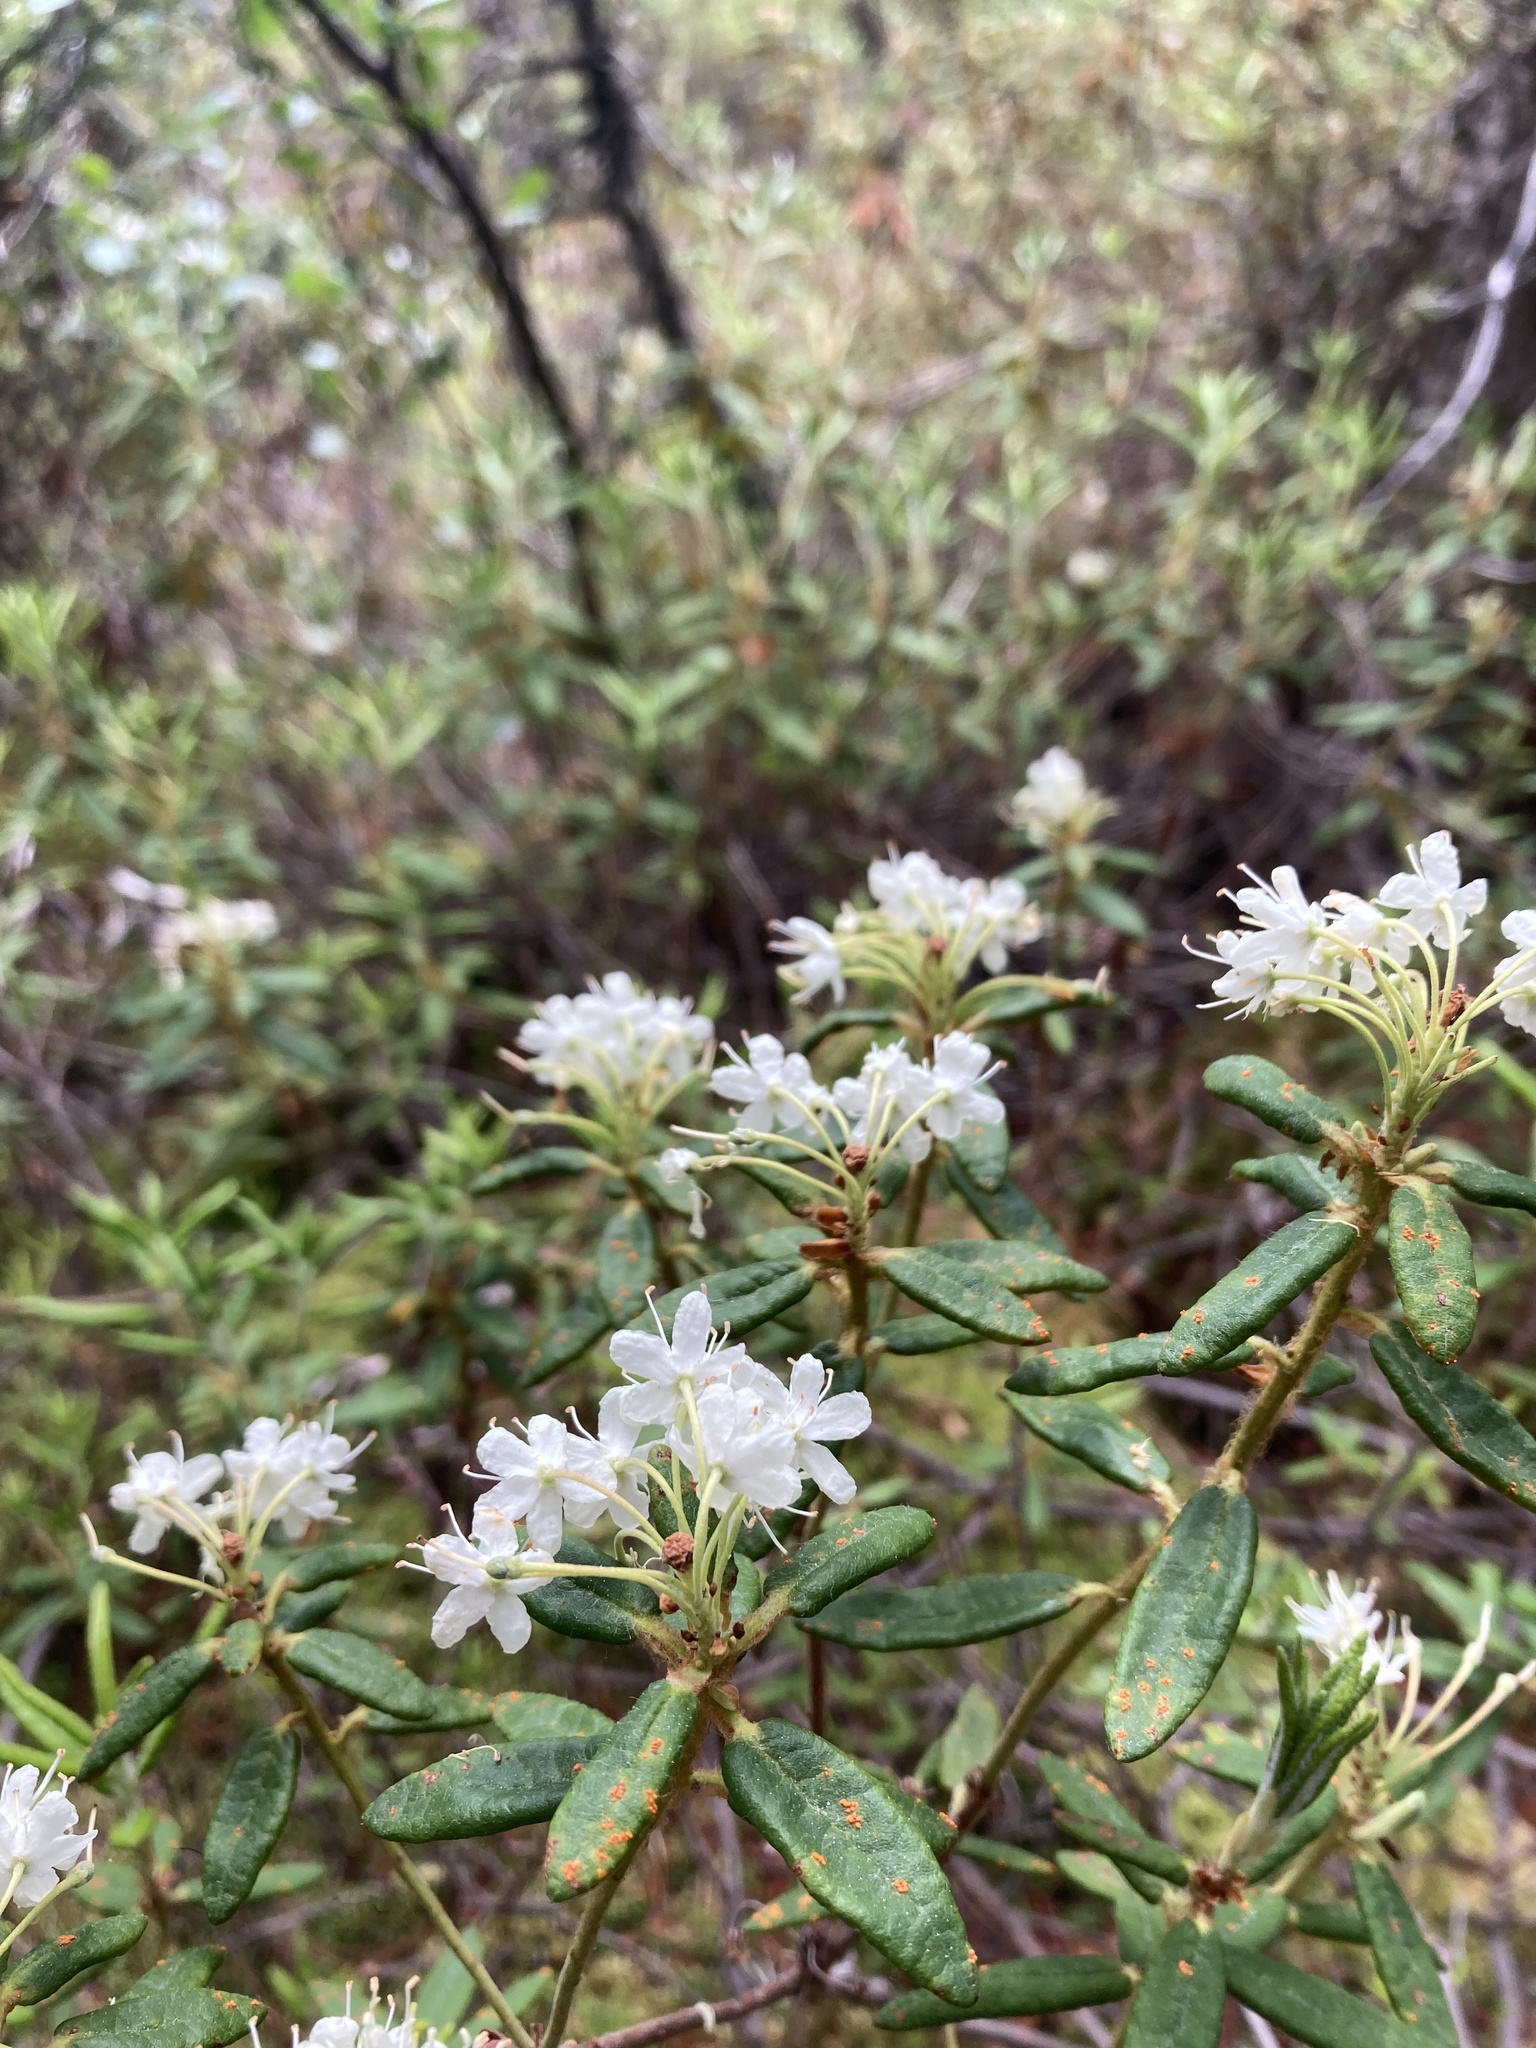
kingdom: Plantae
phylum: Tracheophyta
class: Magnoliopsida
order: Ericales
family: Ericaceae
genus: Rhododendron
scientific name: Rhododendron groenlandicum
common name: Bog labrador tea
